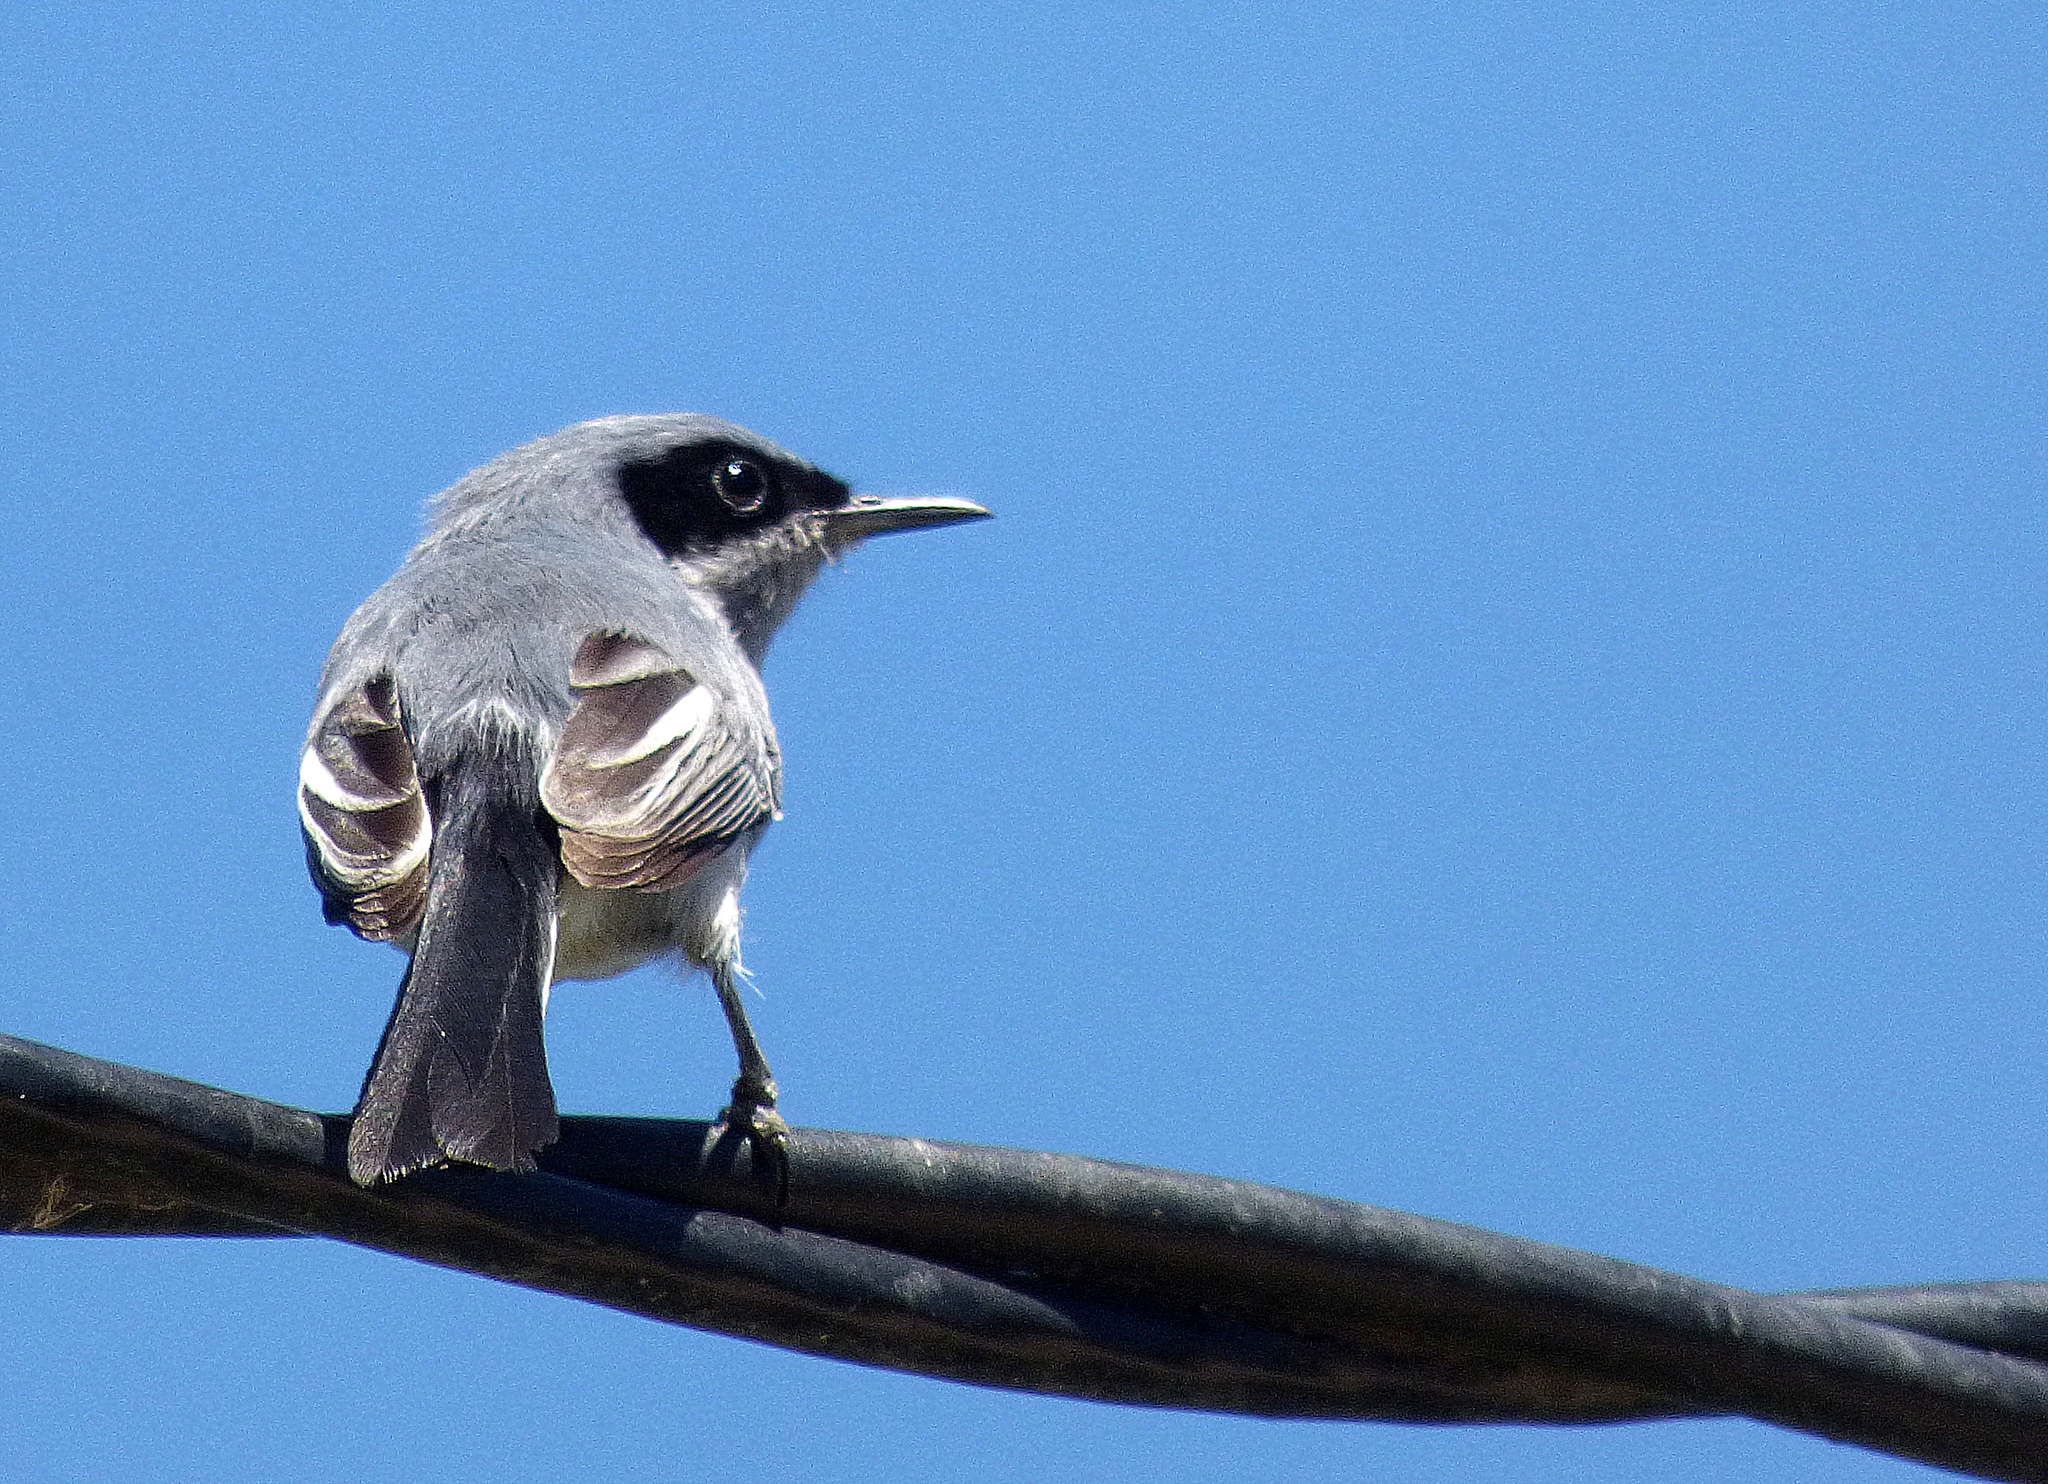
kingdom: Animalia
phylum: Chordata
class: Aves
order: Passeriformes
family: Polioptilidae
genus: Polioptila
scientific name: Polioptila dumicola
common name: Masked gnatcatcher
